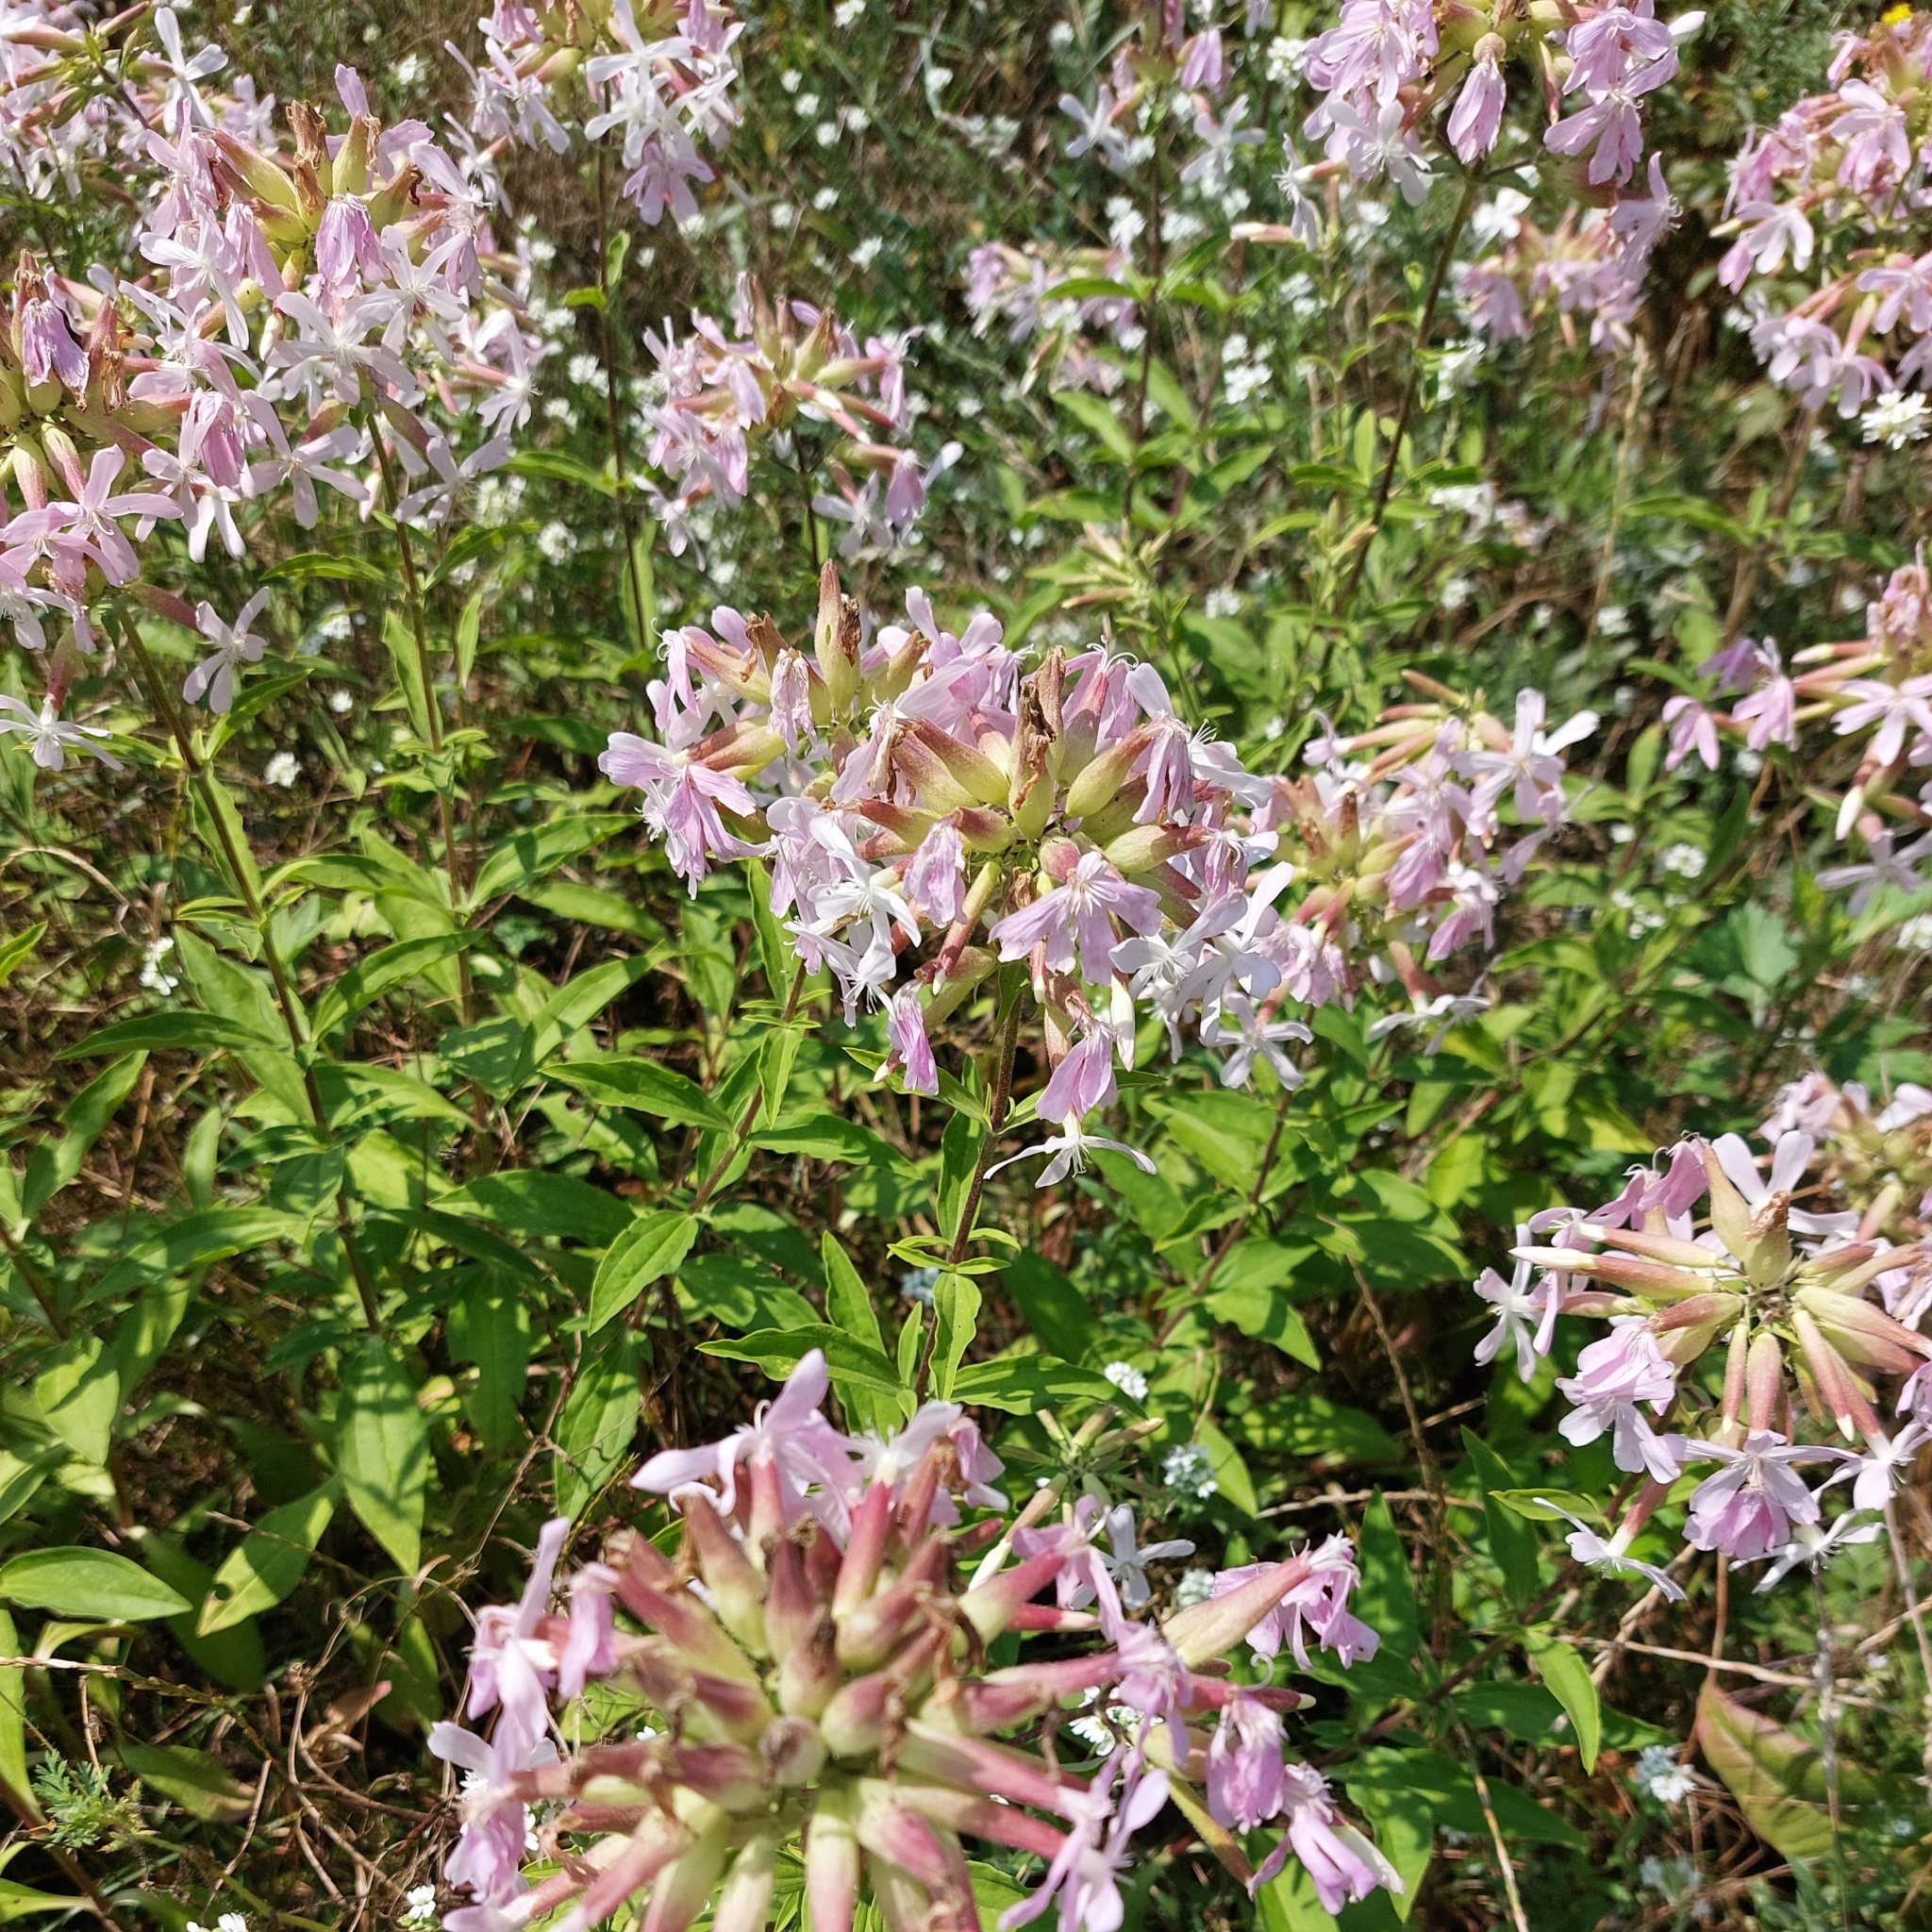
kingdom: Plantae
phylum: Tracheophyta
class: Magnoliopsida
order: Caryophyllales
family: Caryophyllaceae
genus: Saponaria
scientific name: Saponaria officinalis
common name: Soapwort
